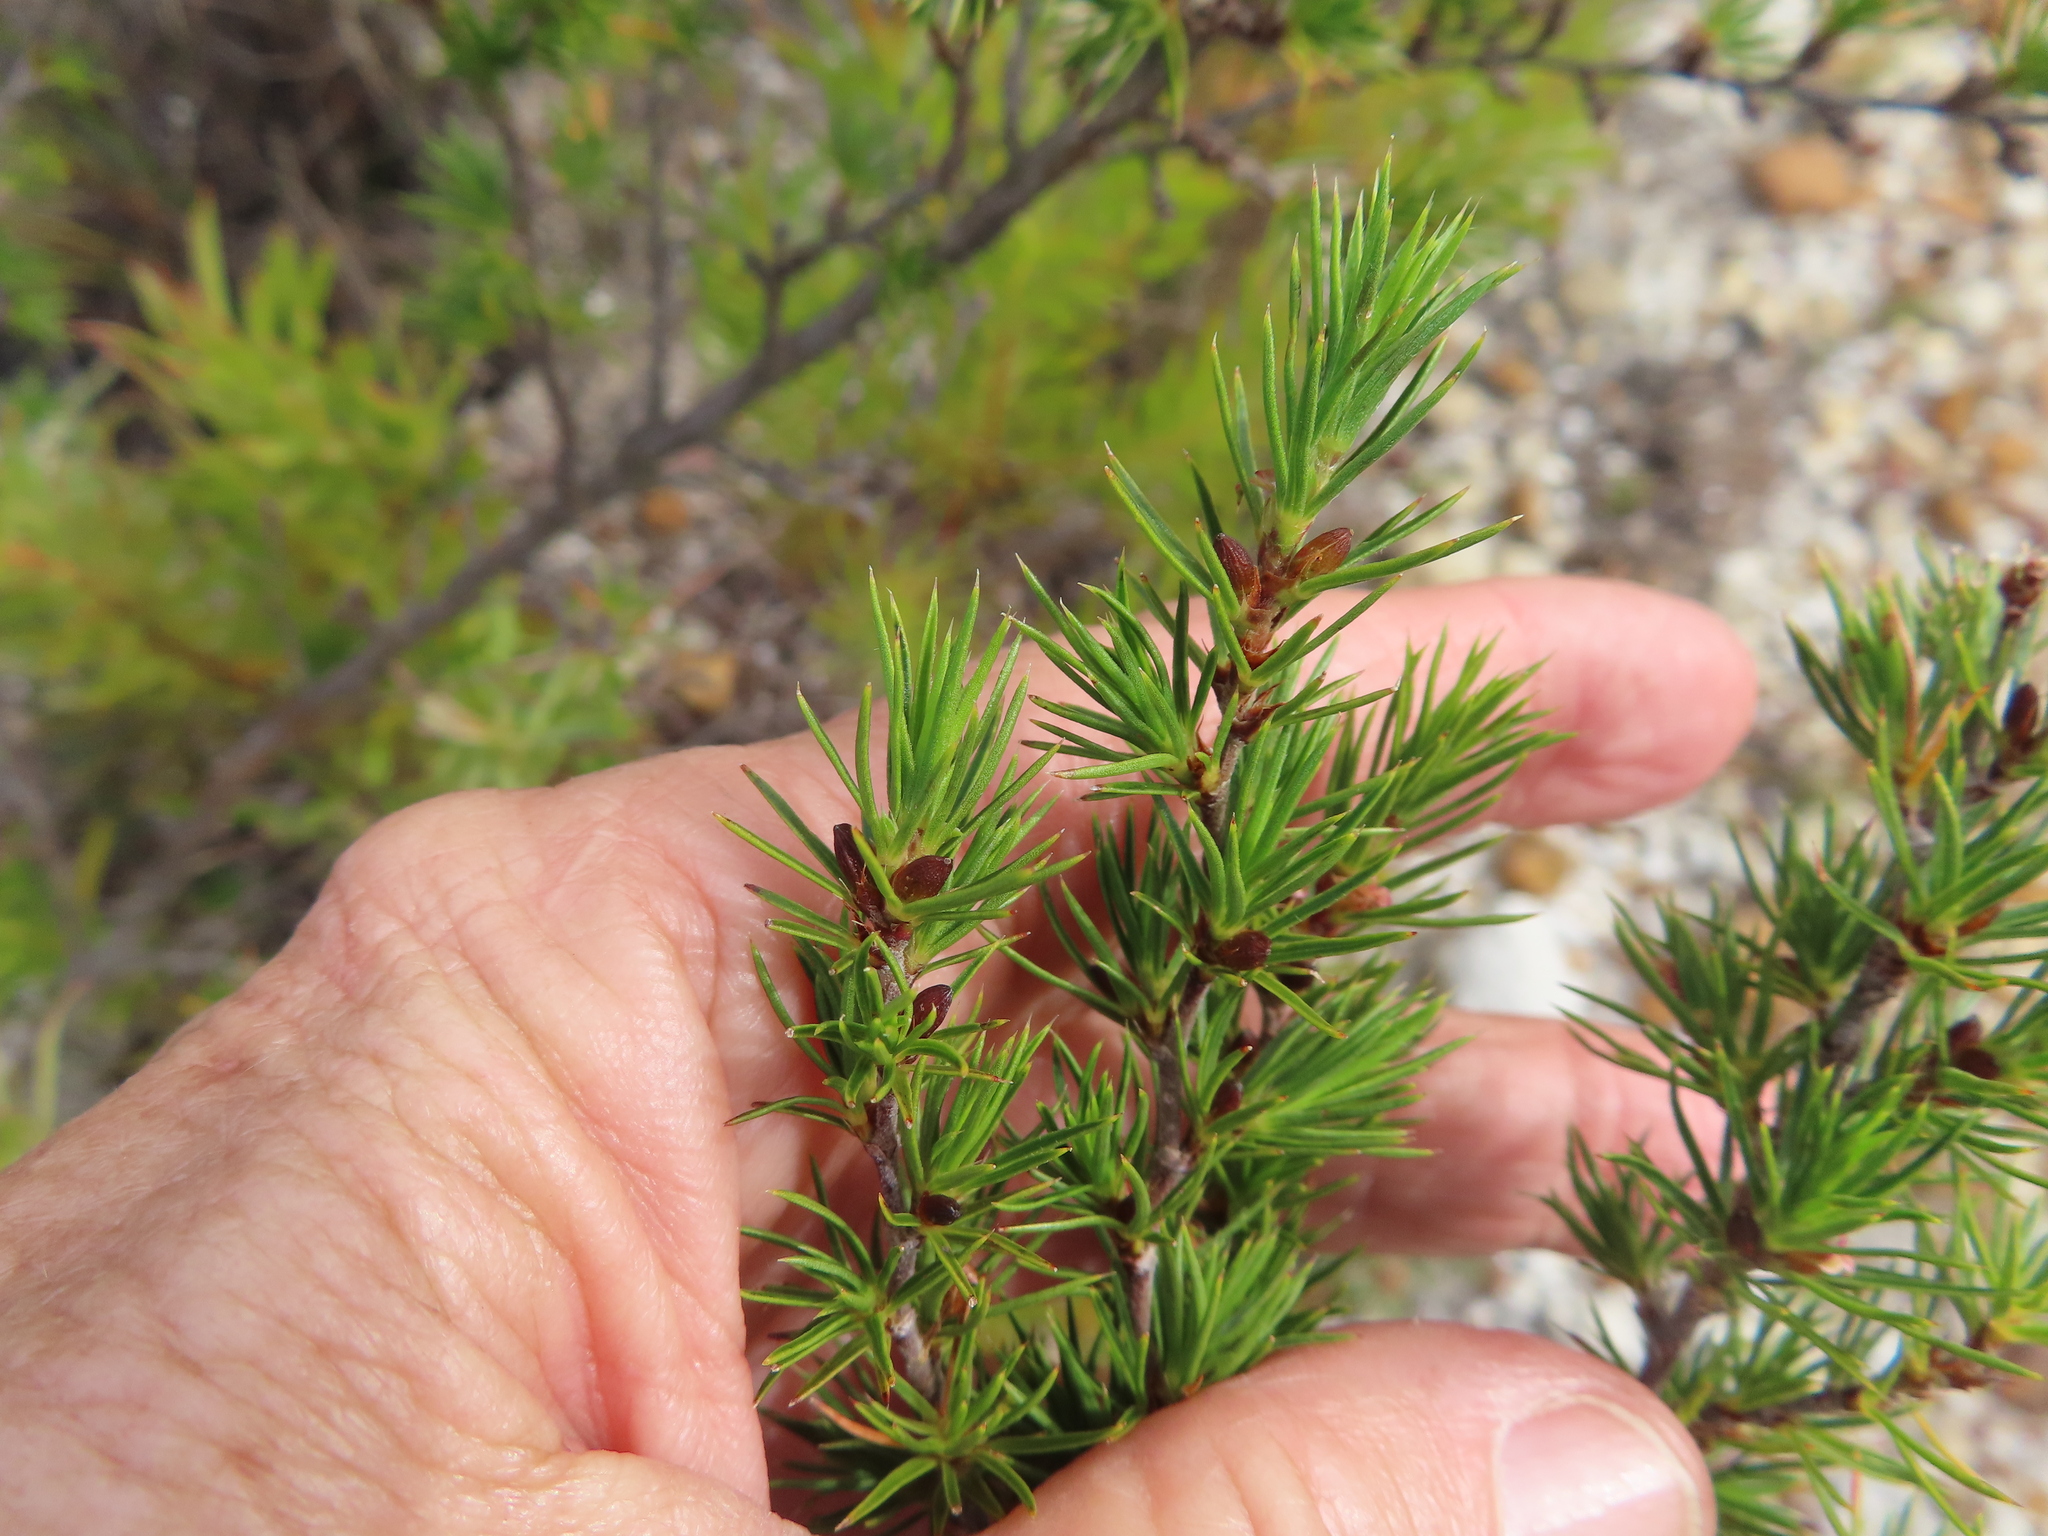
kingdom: Plantae
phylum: Tracheophyta
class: Magnoliopsida
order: Rosales
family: Rosaceae
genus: Cliffortia
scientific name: Cliffortia atrata
